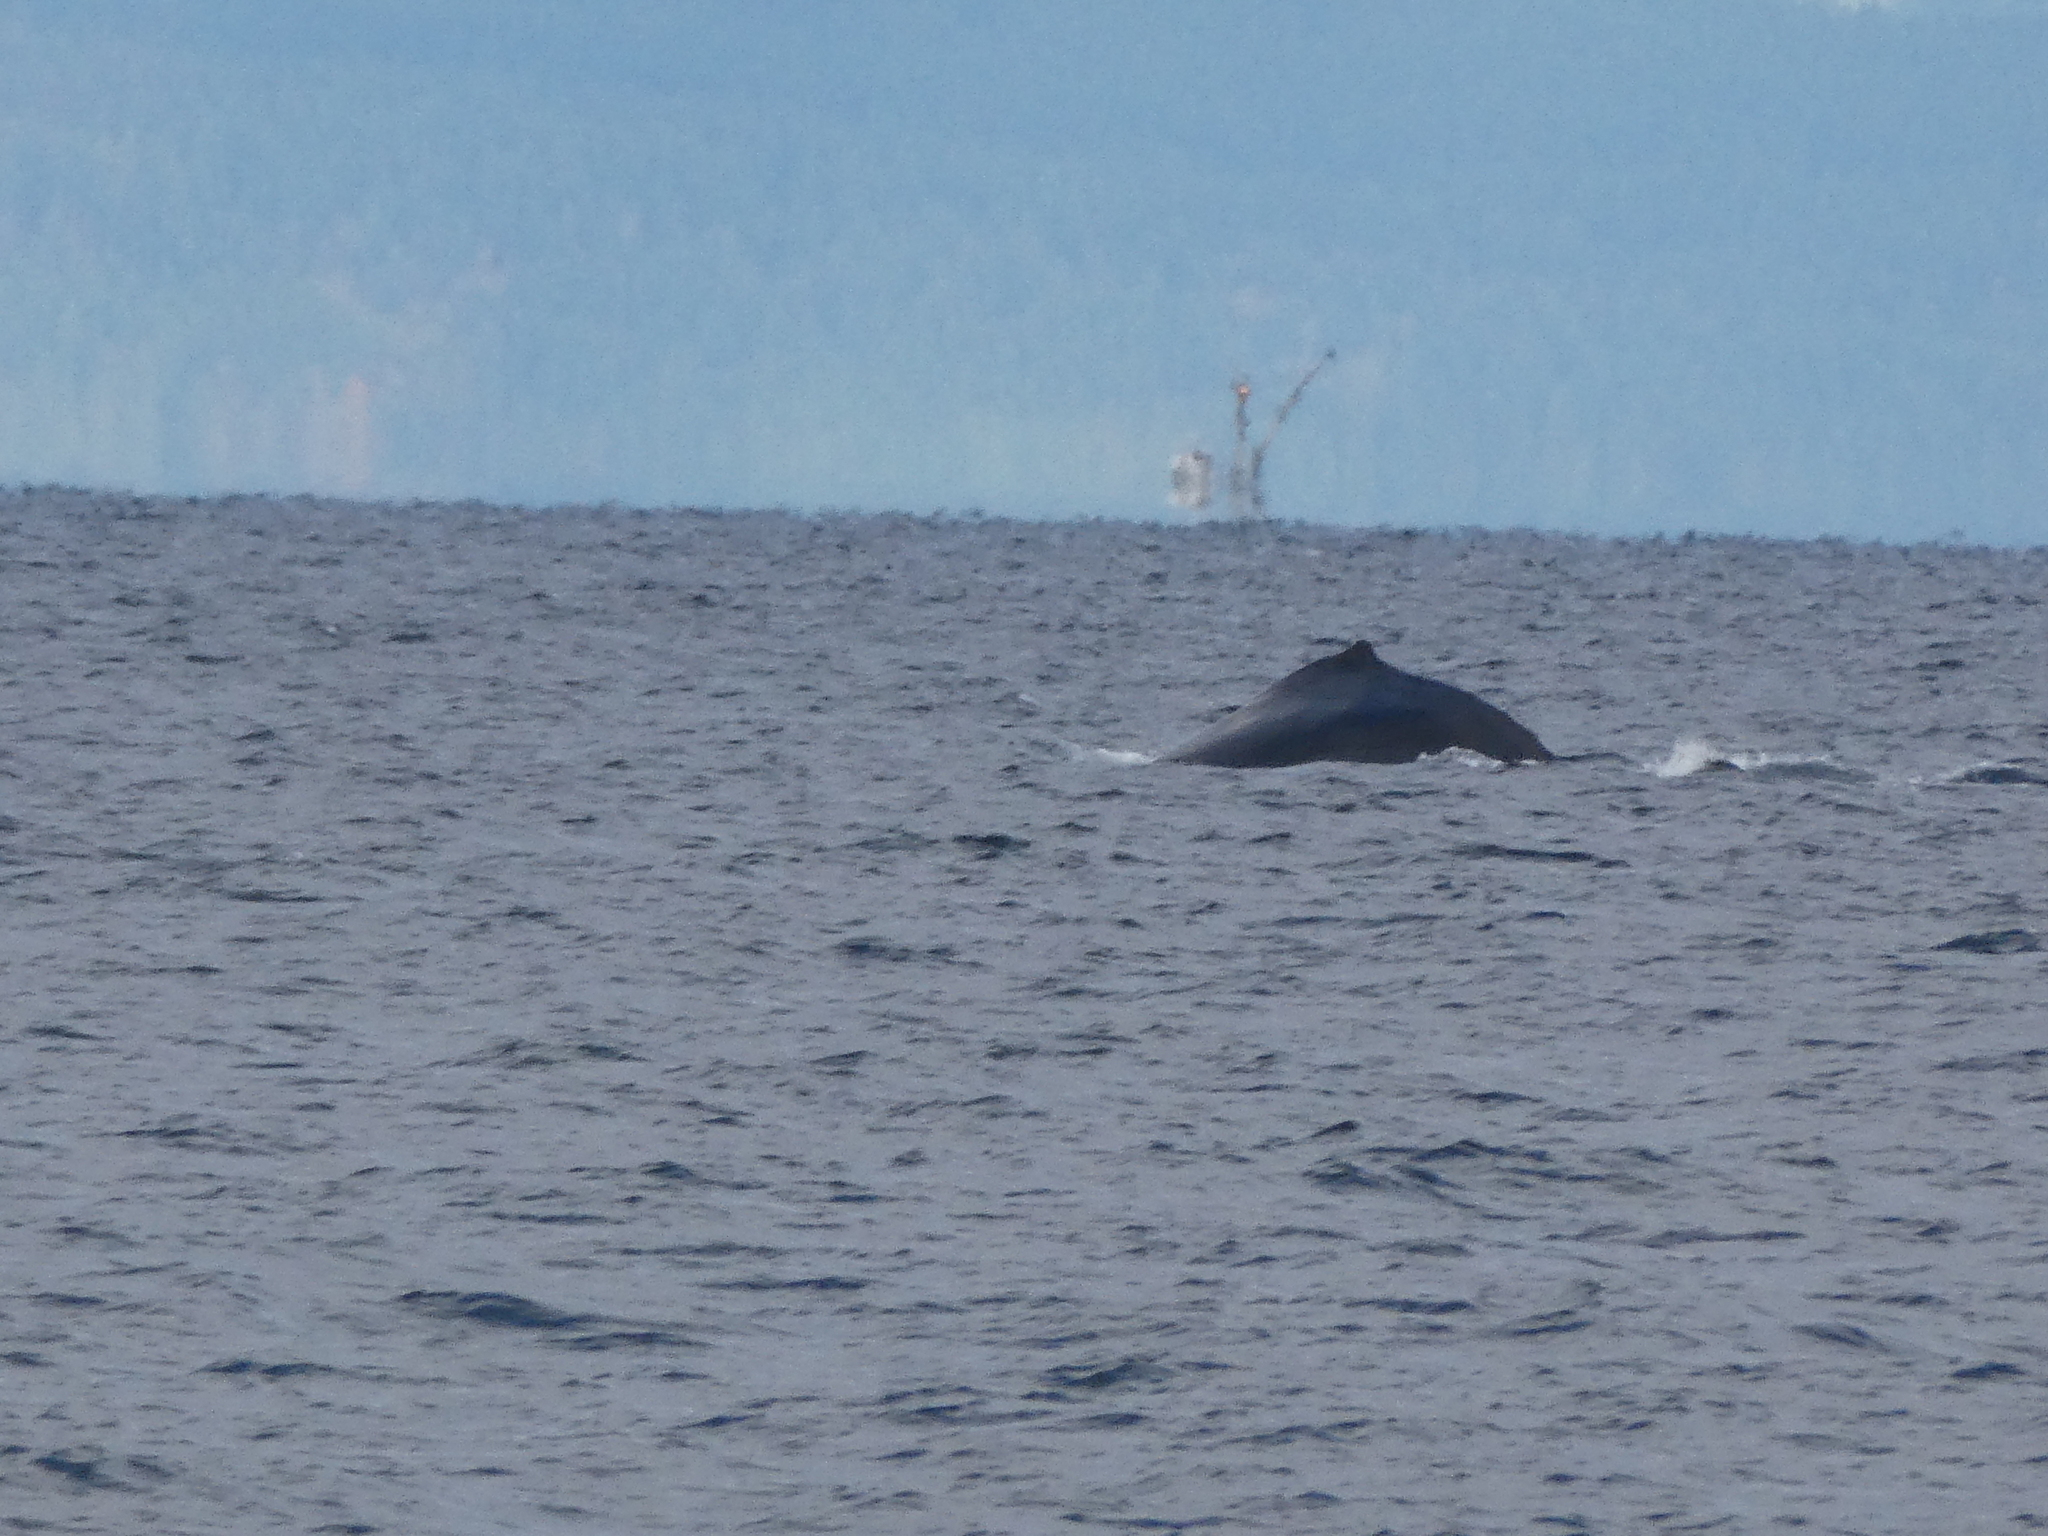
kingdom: Animalia
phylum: Chordata
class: Mammalia
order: Cetacea
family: Balaenopteridae
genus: Megaptera
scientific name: Megaptera novaeangliae
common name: Humpback whale
